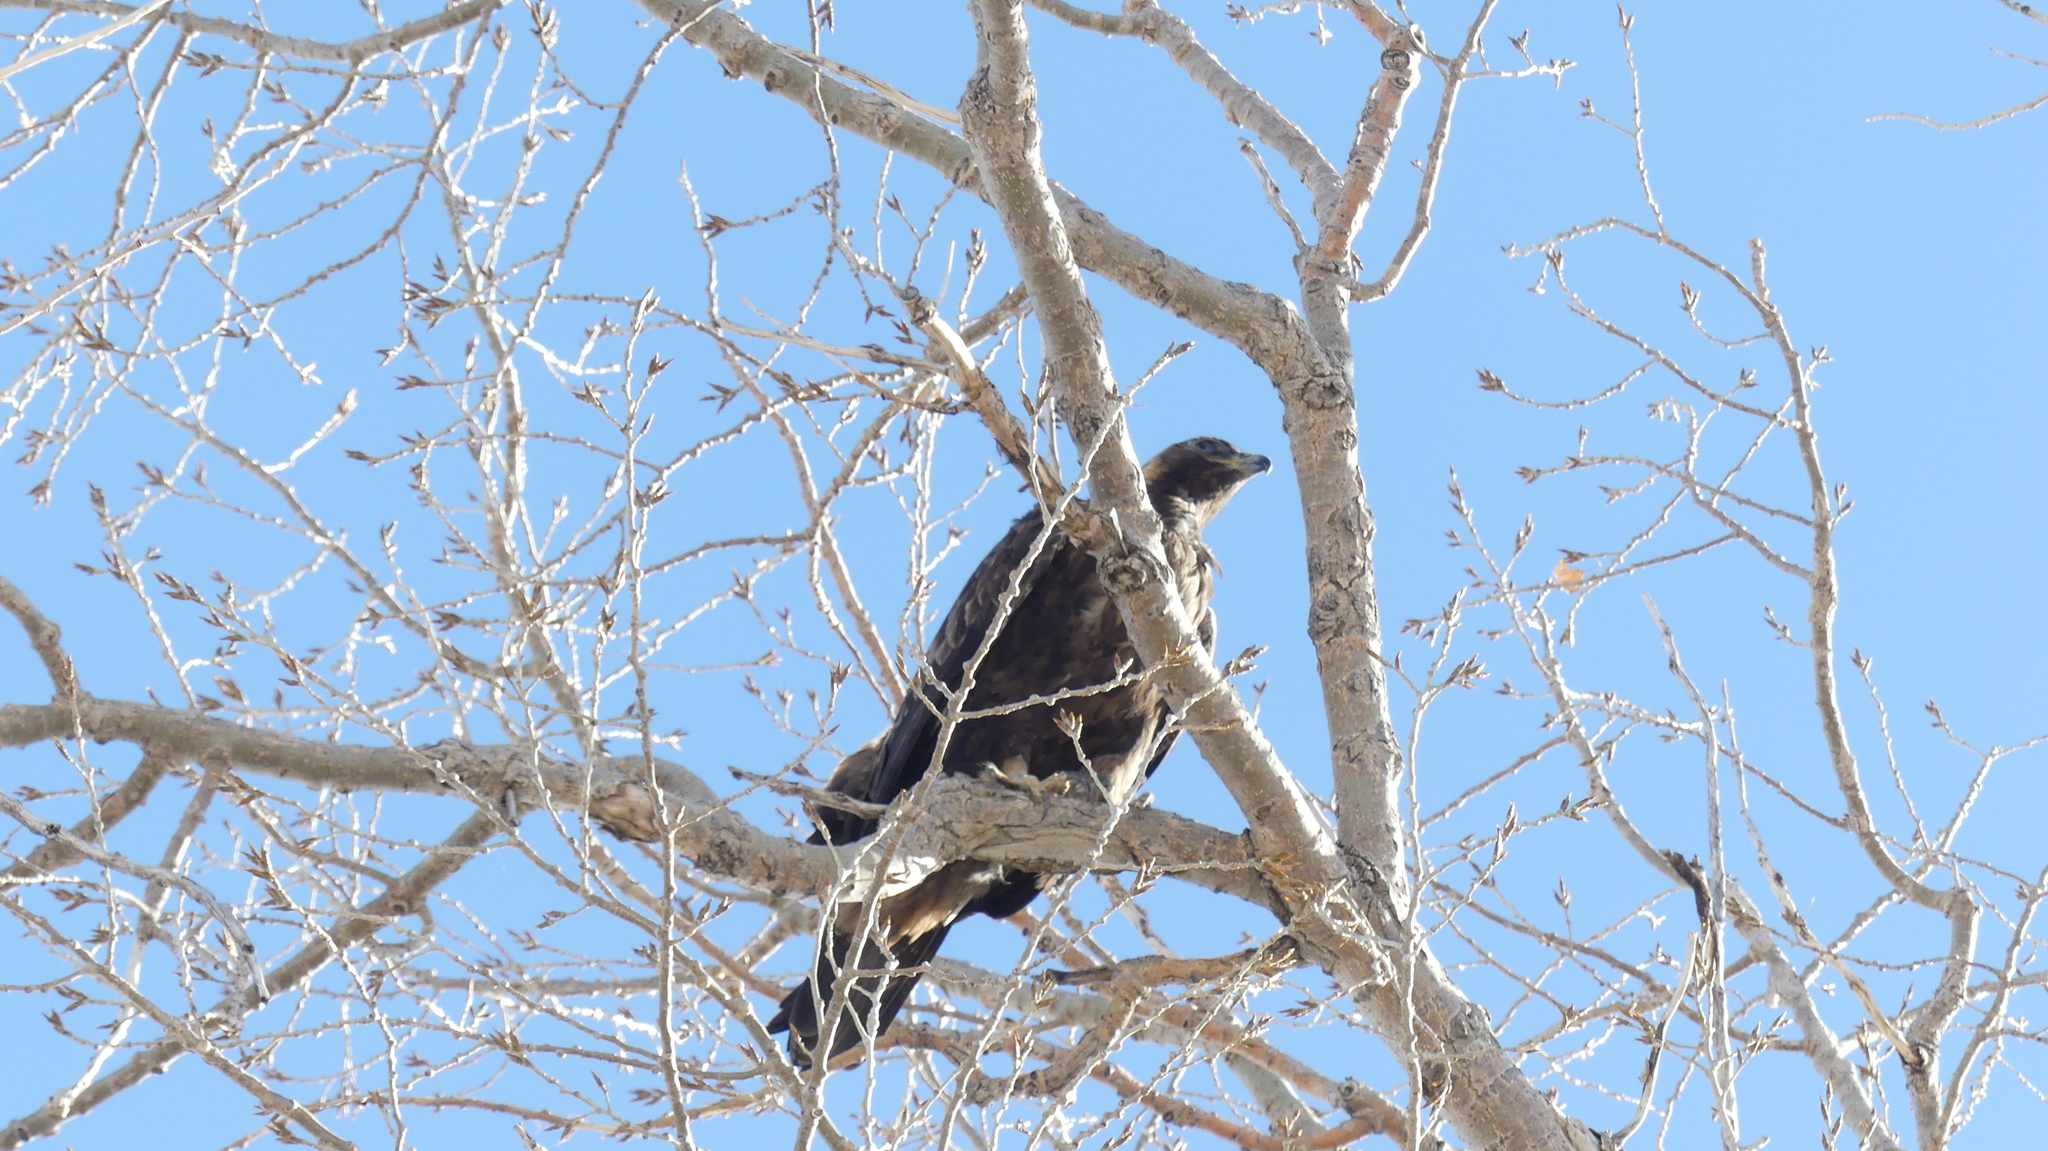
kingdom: Animalia
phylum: Chordata
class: Aves
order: Accipitriformes
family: Accipitridae
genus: Aquila
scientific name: Aquila chrysaetos
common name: Golden eagle
